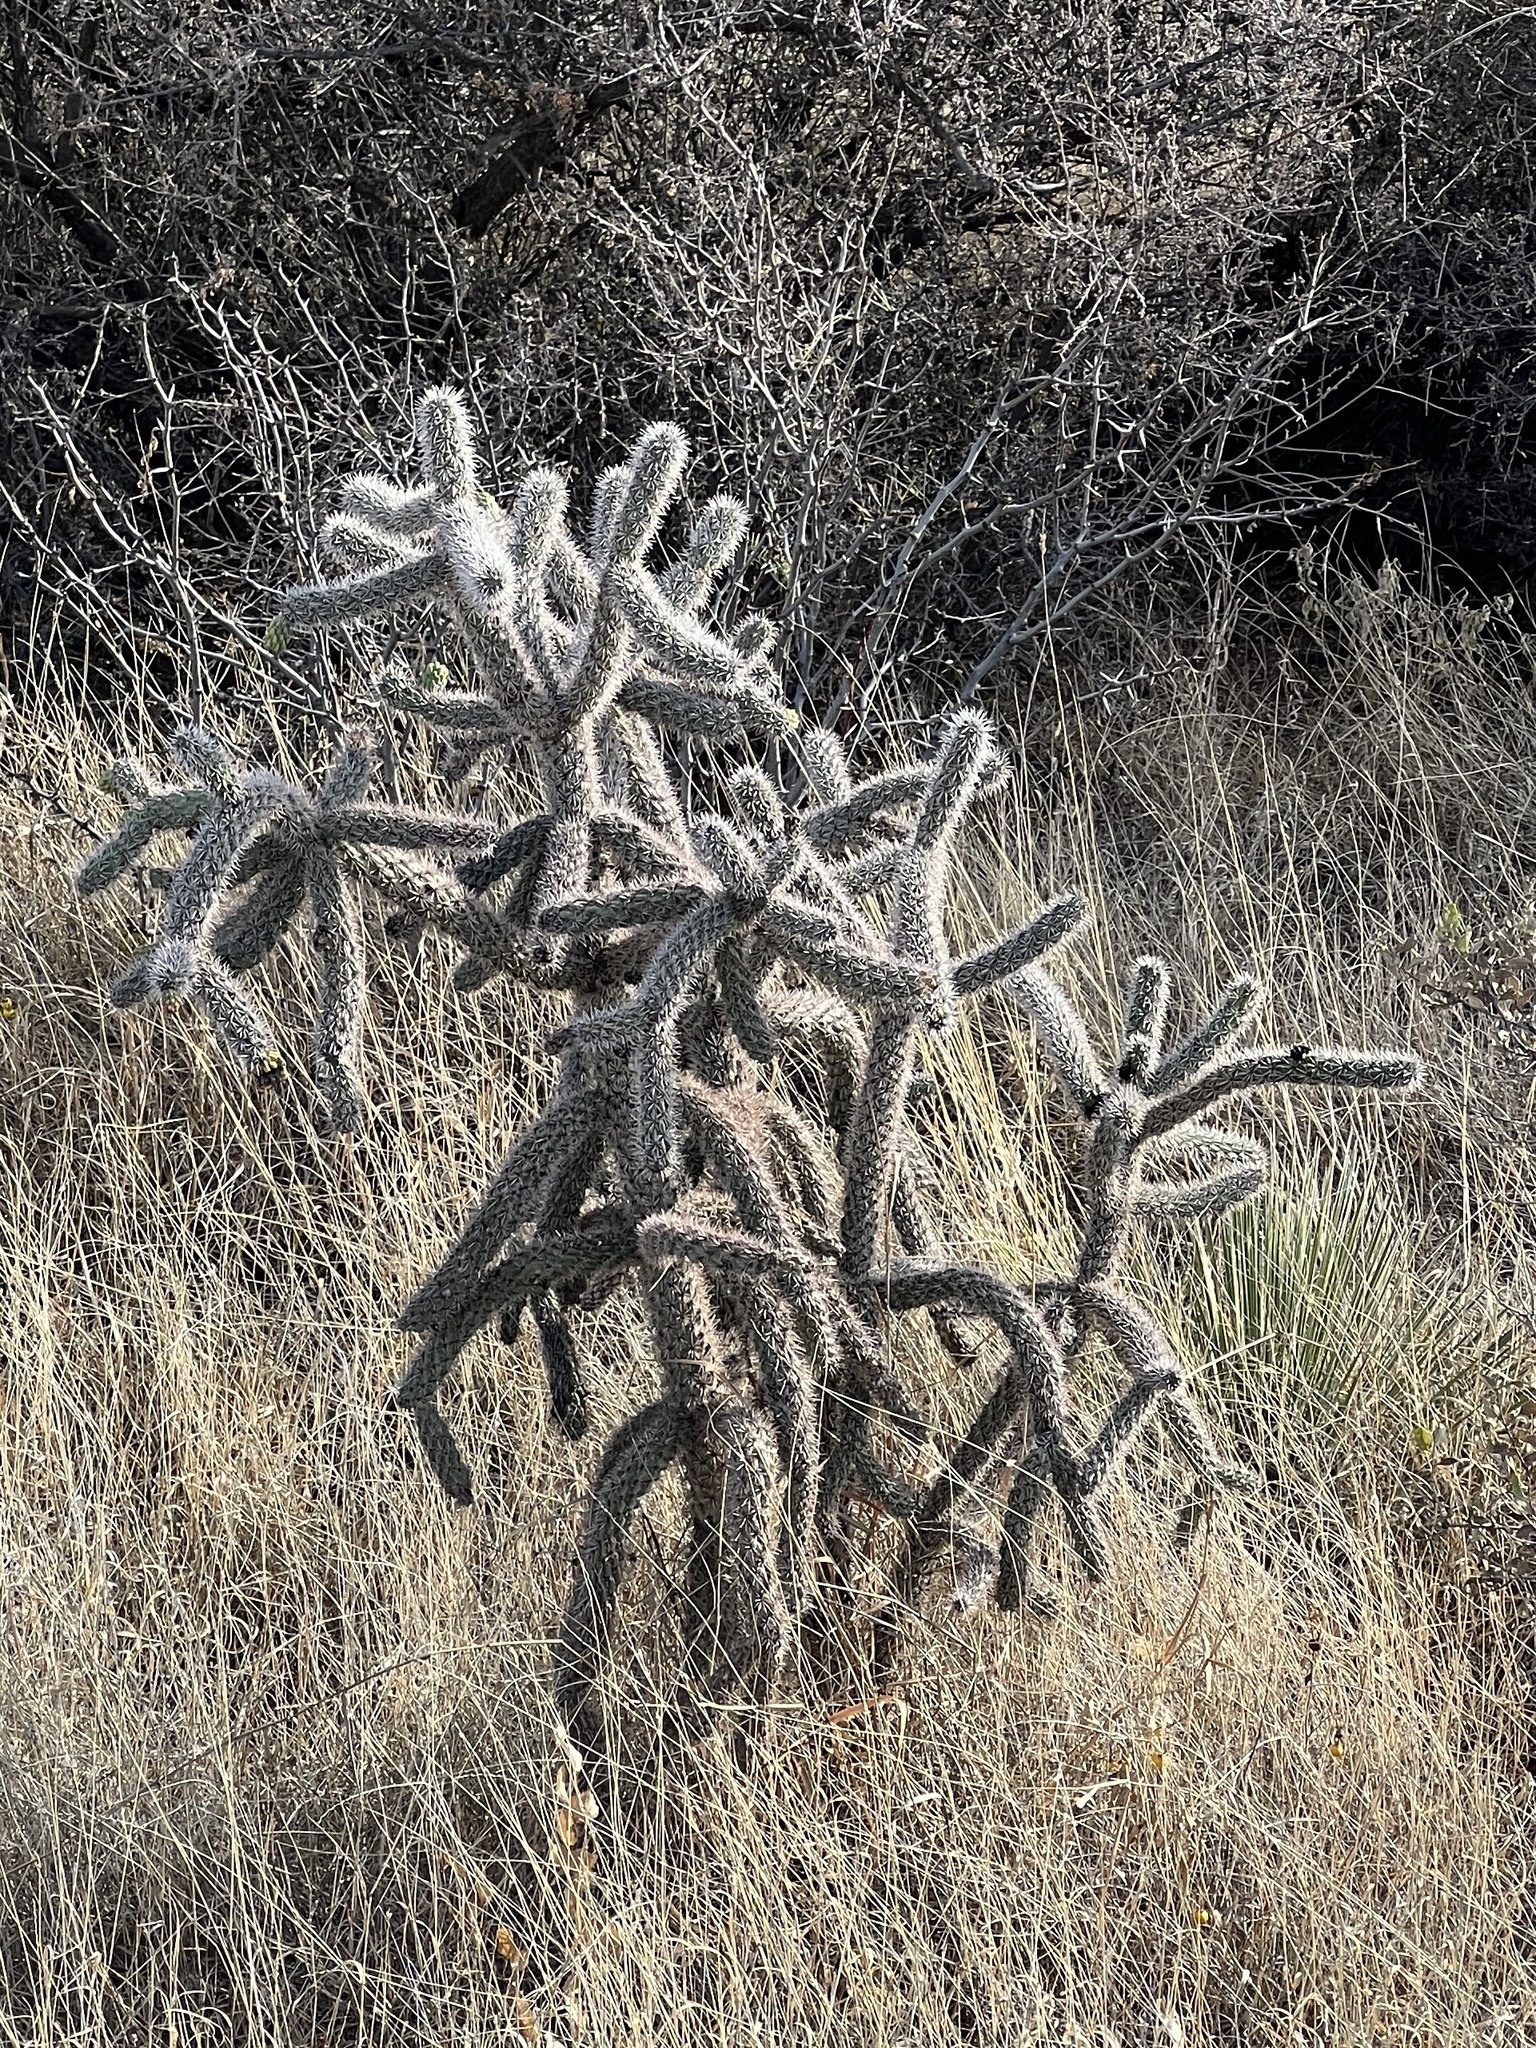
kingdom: Plantae
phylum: Tracheophyta
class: Magnoliopsida
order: Caryophyllales
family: Cactaceae
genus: Cylindropuntia
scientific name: Cylindropuntia imbricata
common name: Candelabrum cactus
